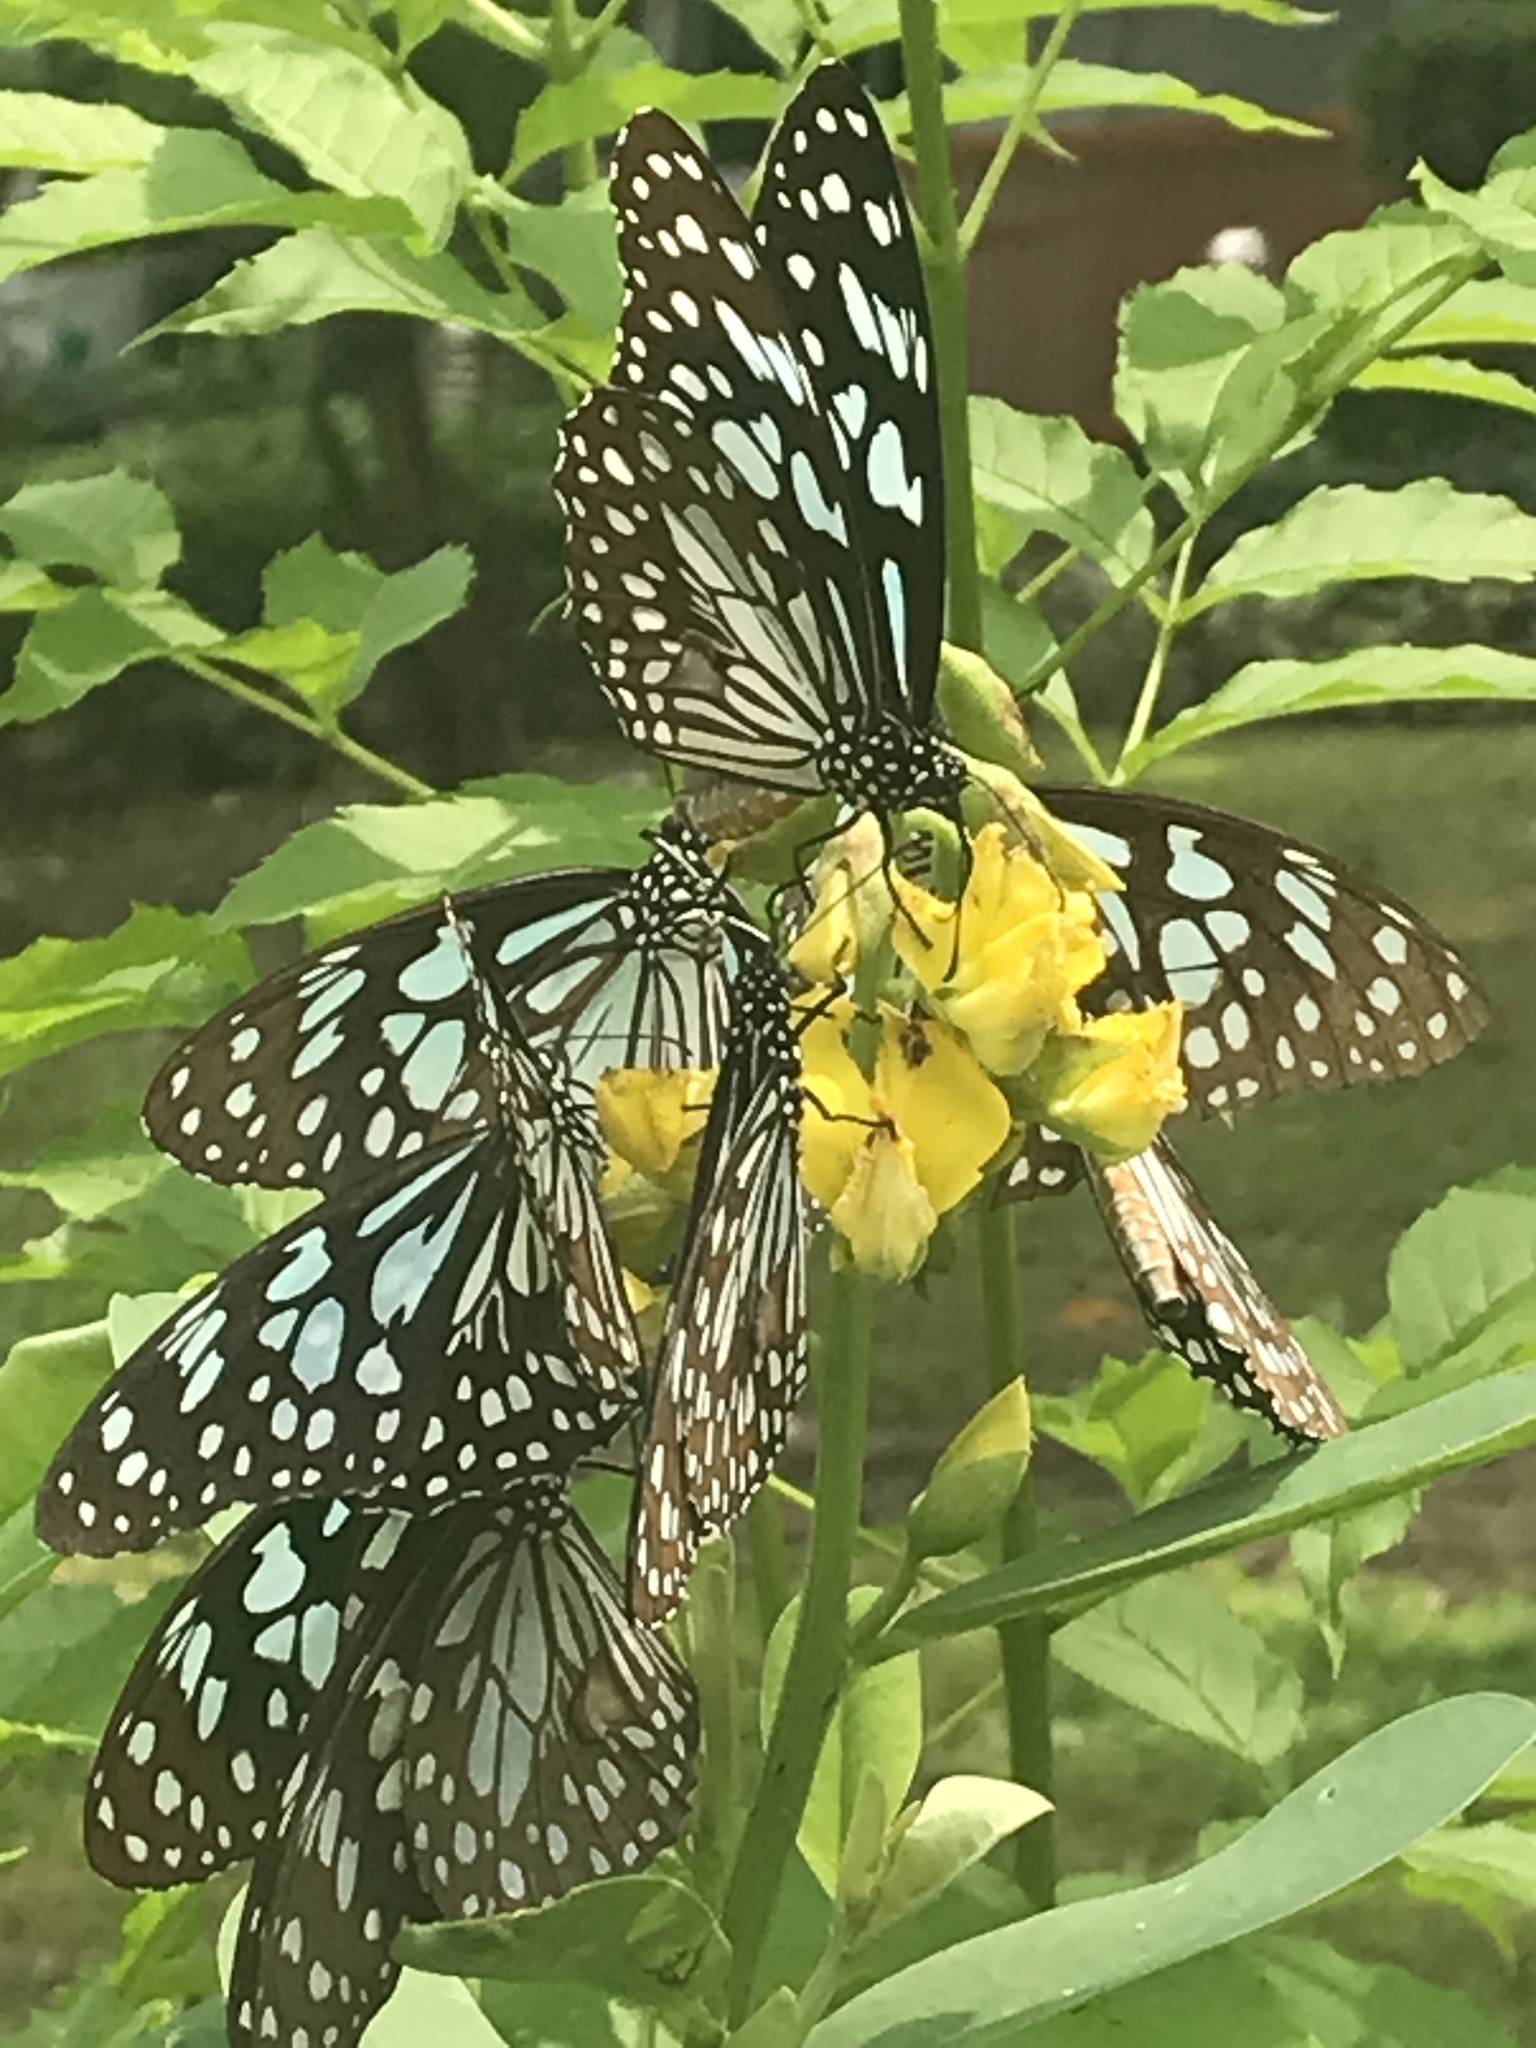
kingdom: Animalia
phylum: Arthropoda
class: Insecta
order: Lepidoptera
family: Nymphalidae
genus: Tirumala
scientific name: Tirumala limniace
